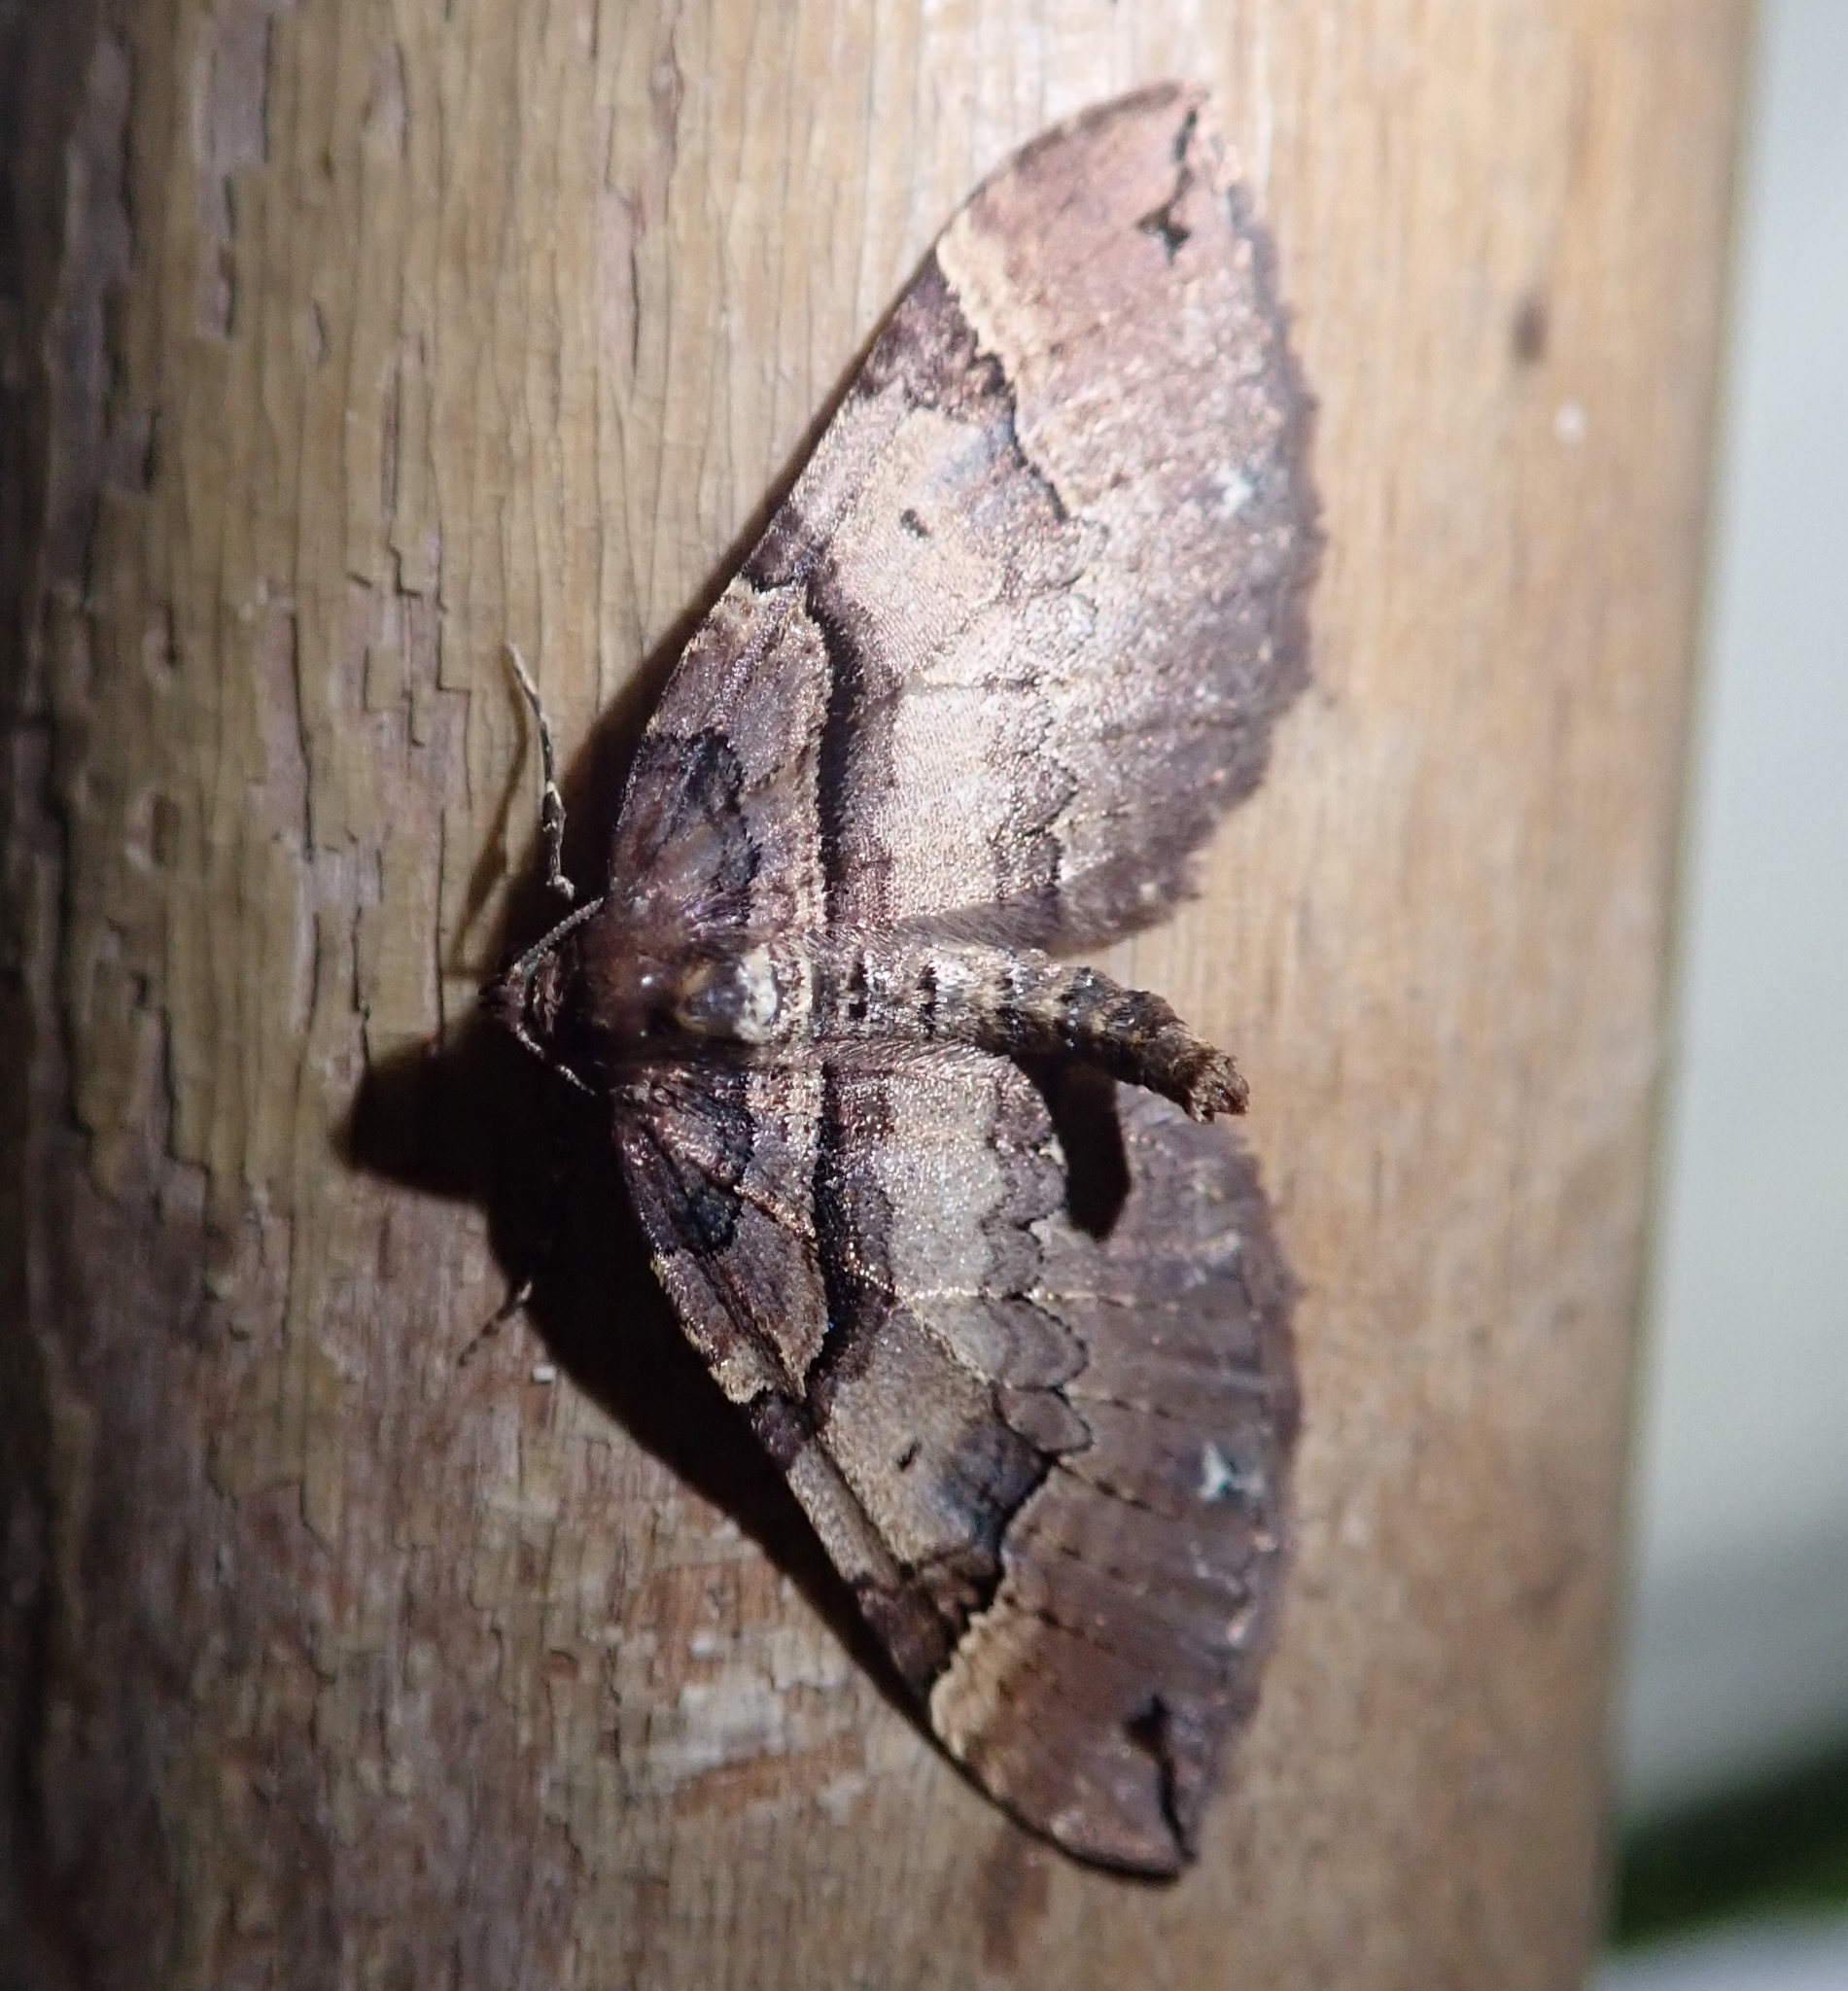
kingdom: Animalia
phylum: Arthropoda
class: Insecta
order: Lepidoptera
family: Geometridae
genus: Anticlea
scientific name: Anticlea badiata
